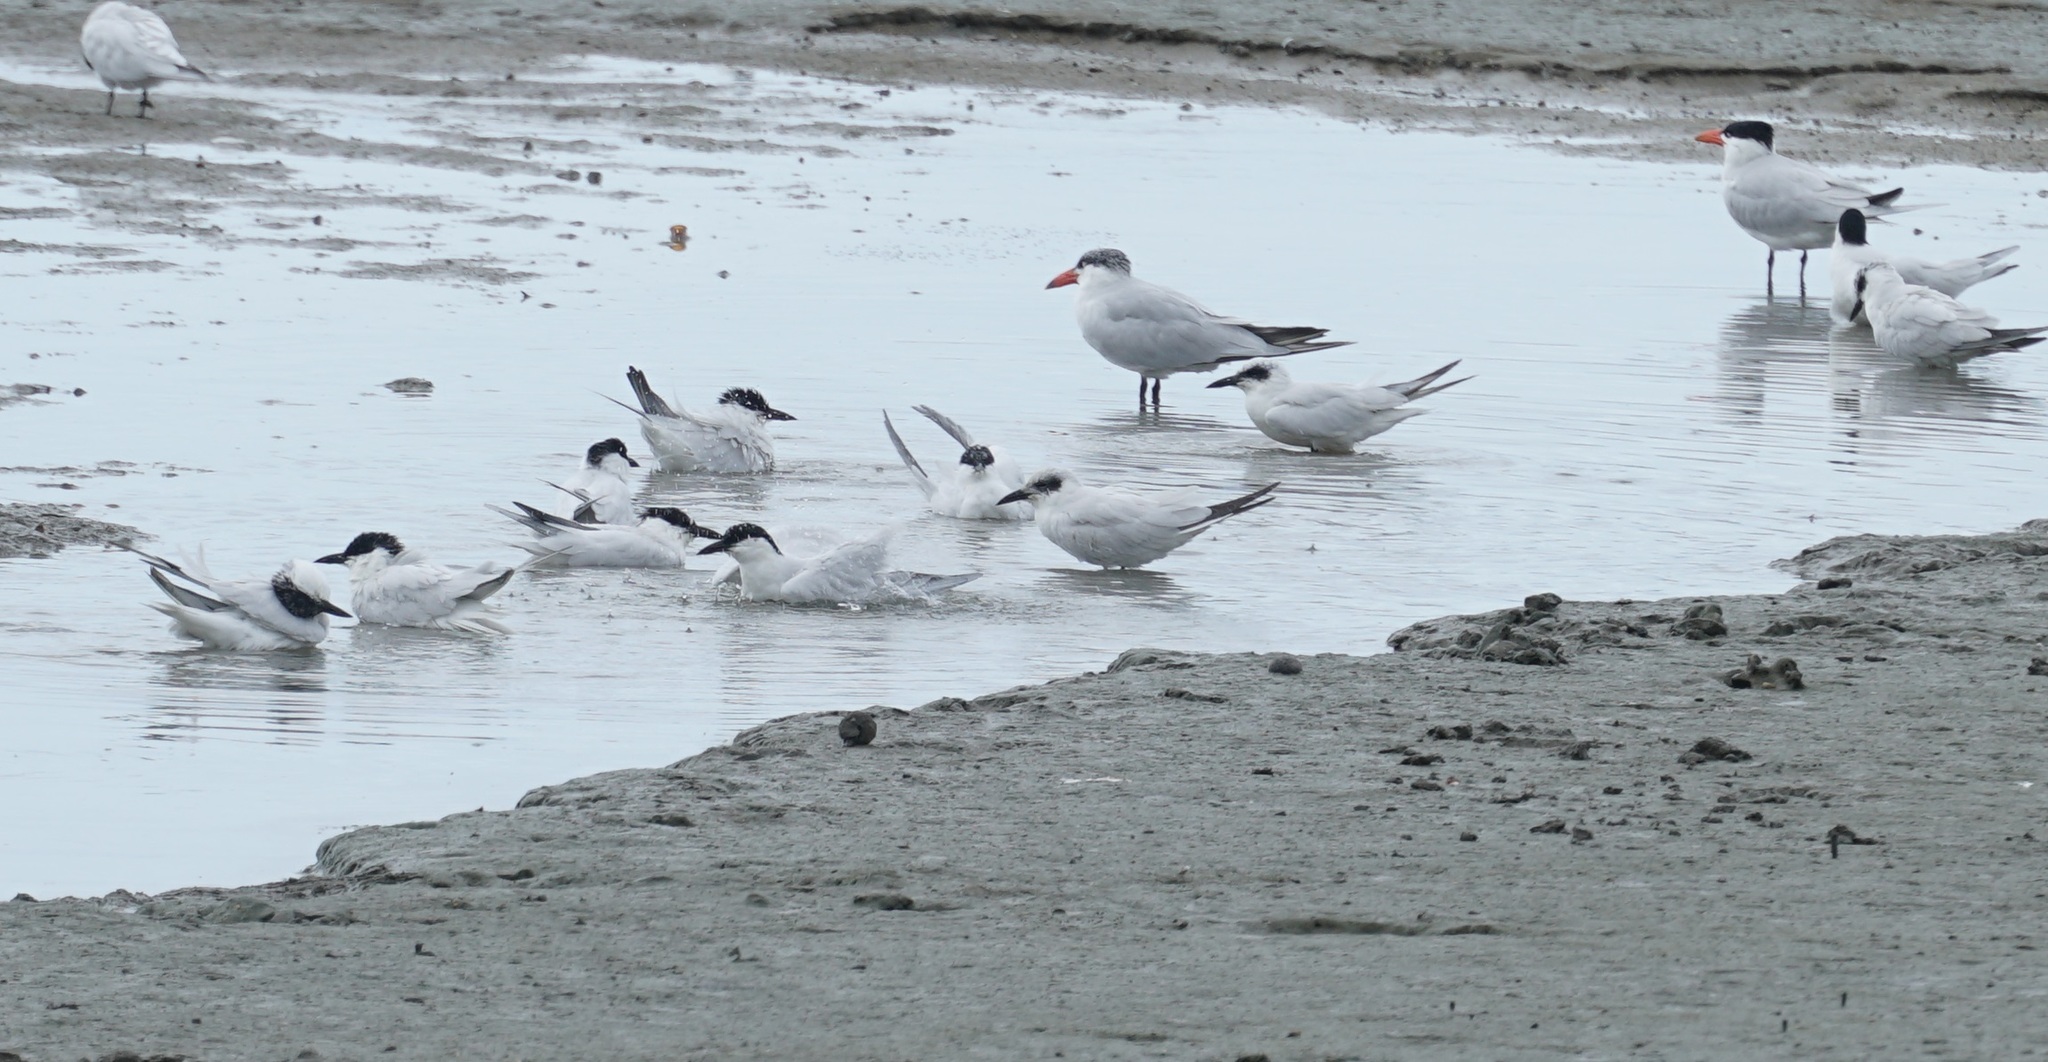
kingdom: Animalia
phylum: Chordata
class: Aves
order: Charadriiformes
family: Laridae
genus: Gelochelidon
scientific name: Gelochelidon macrotarsa
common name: Australian tern
